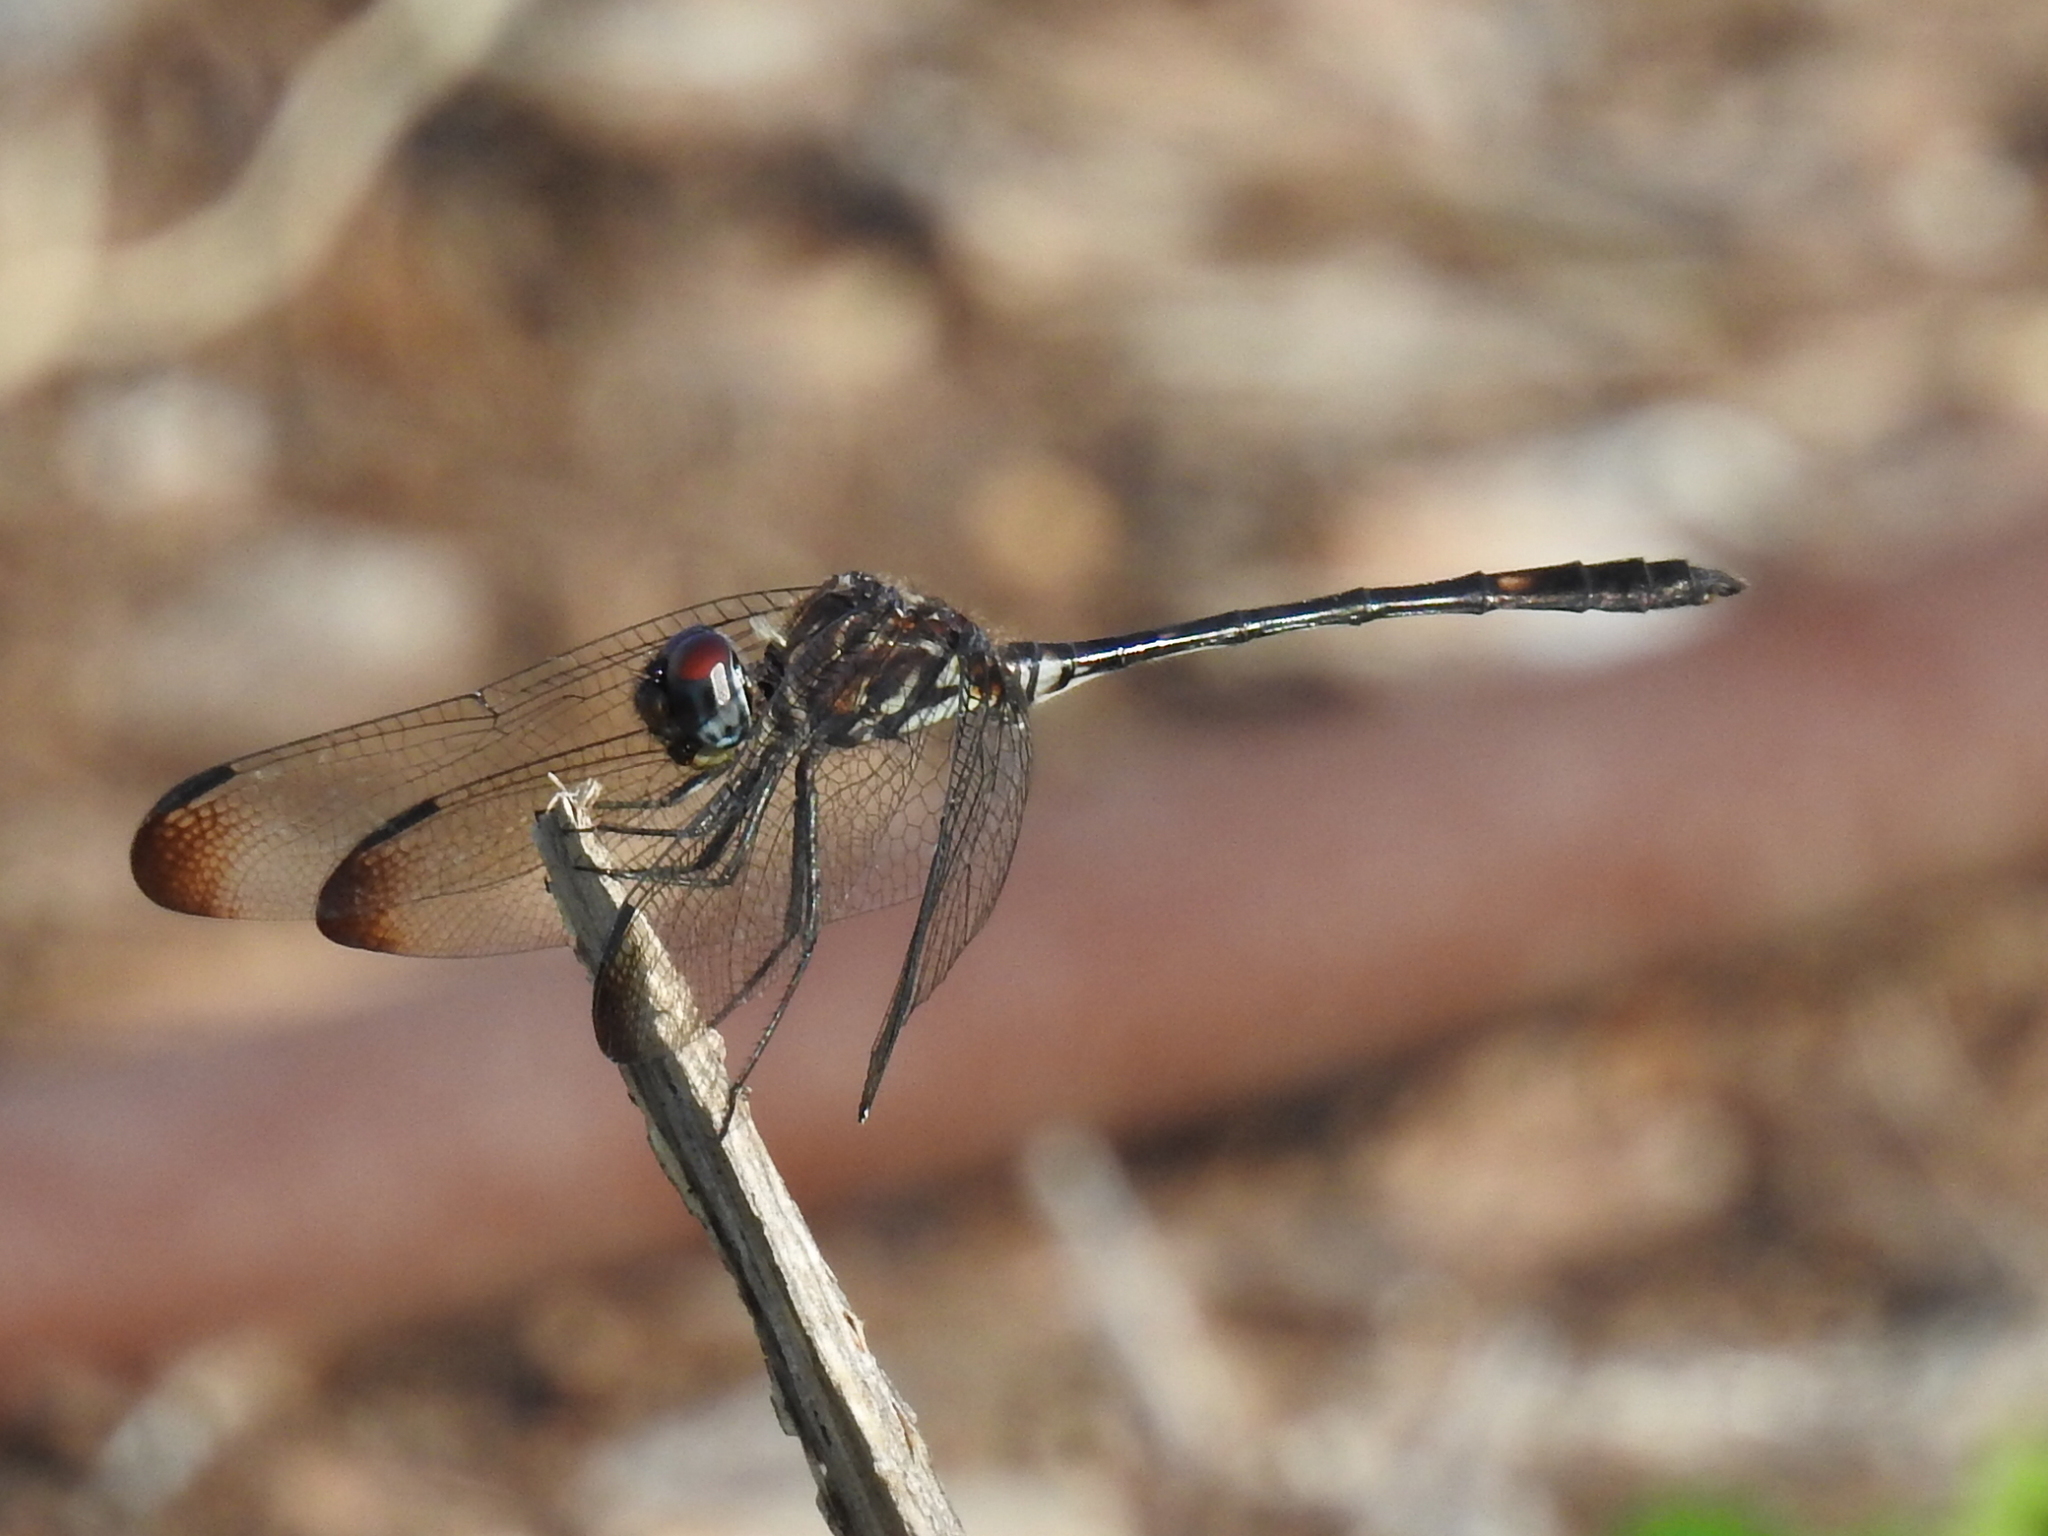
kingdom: Animalia
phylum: Arthropoda
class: Insecta
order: Odonata
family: Libellulidae
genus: Dythemis
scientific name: Dythemis velox
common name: Swift setwing
